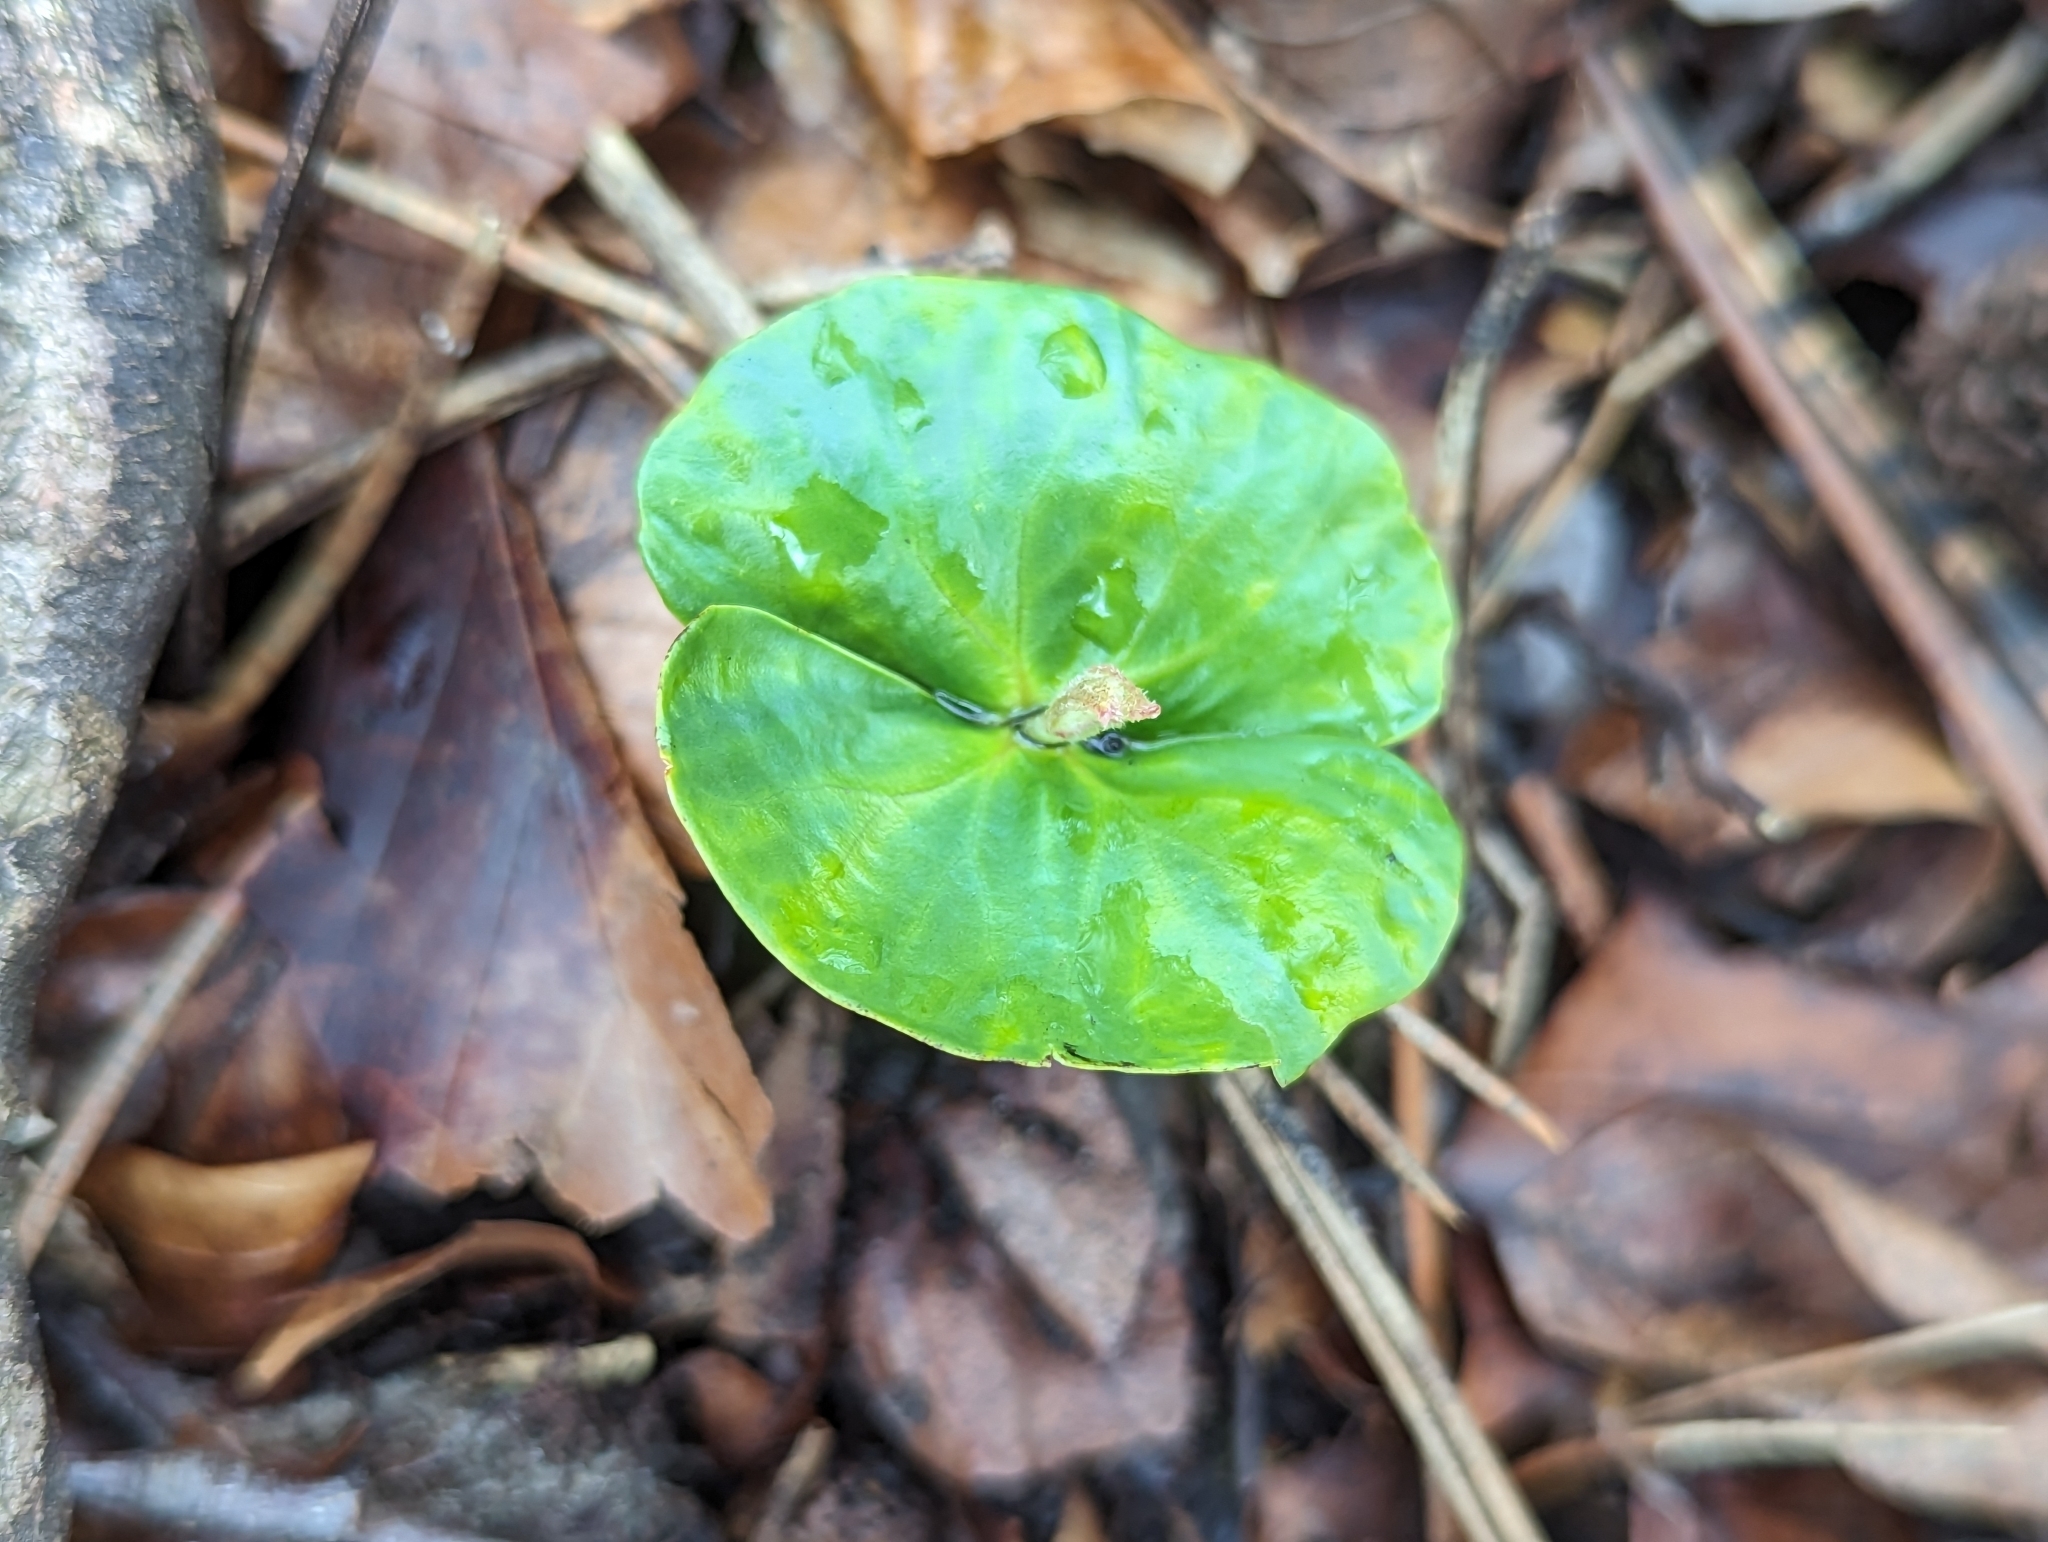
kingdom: Plantae
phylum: Tracheophyta
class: Magnoliopsida
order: Fagales
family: Fagaceae
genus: Fagus
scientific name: Fagus sylvatica
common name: Beech
